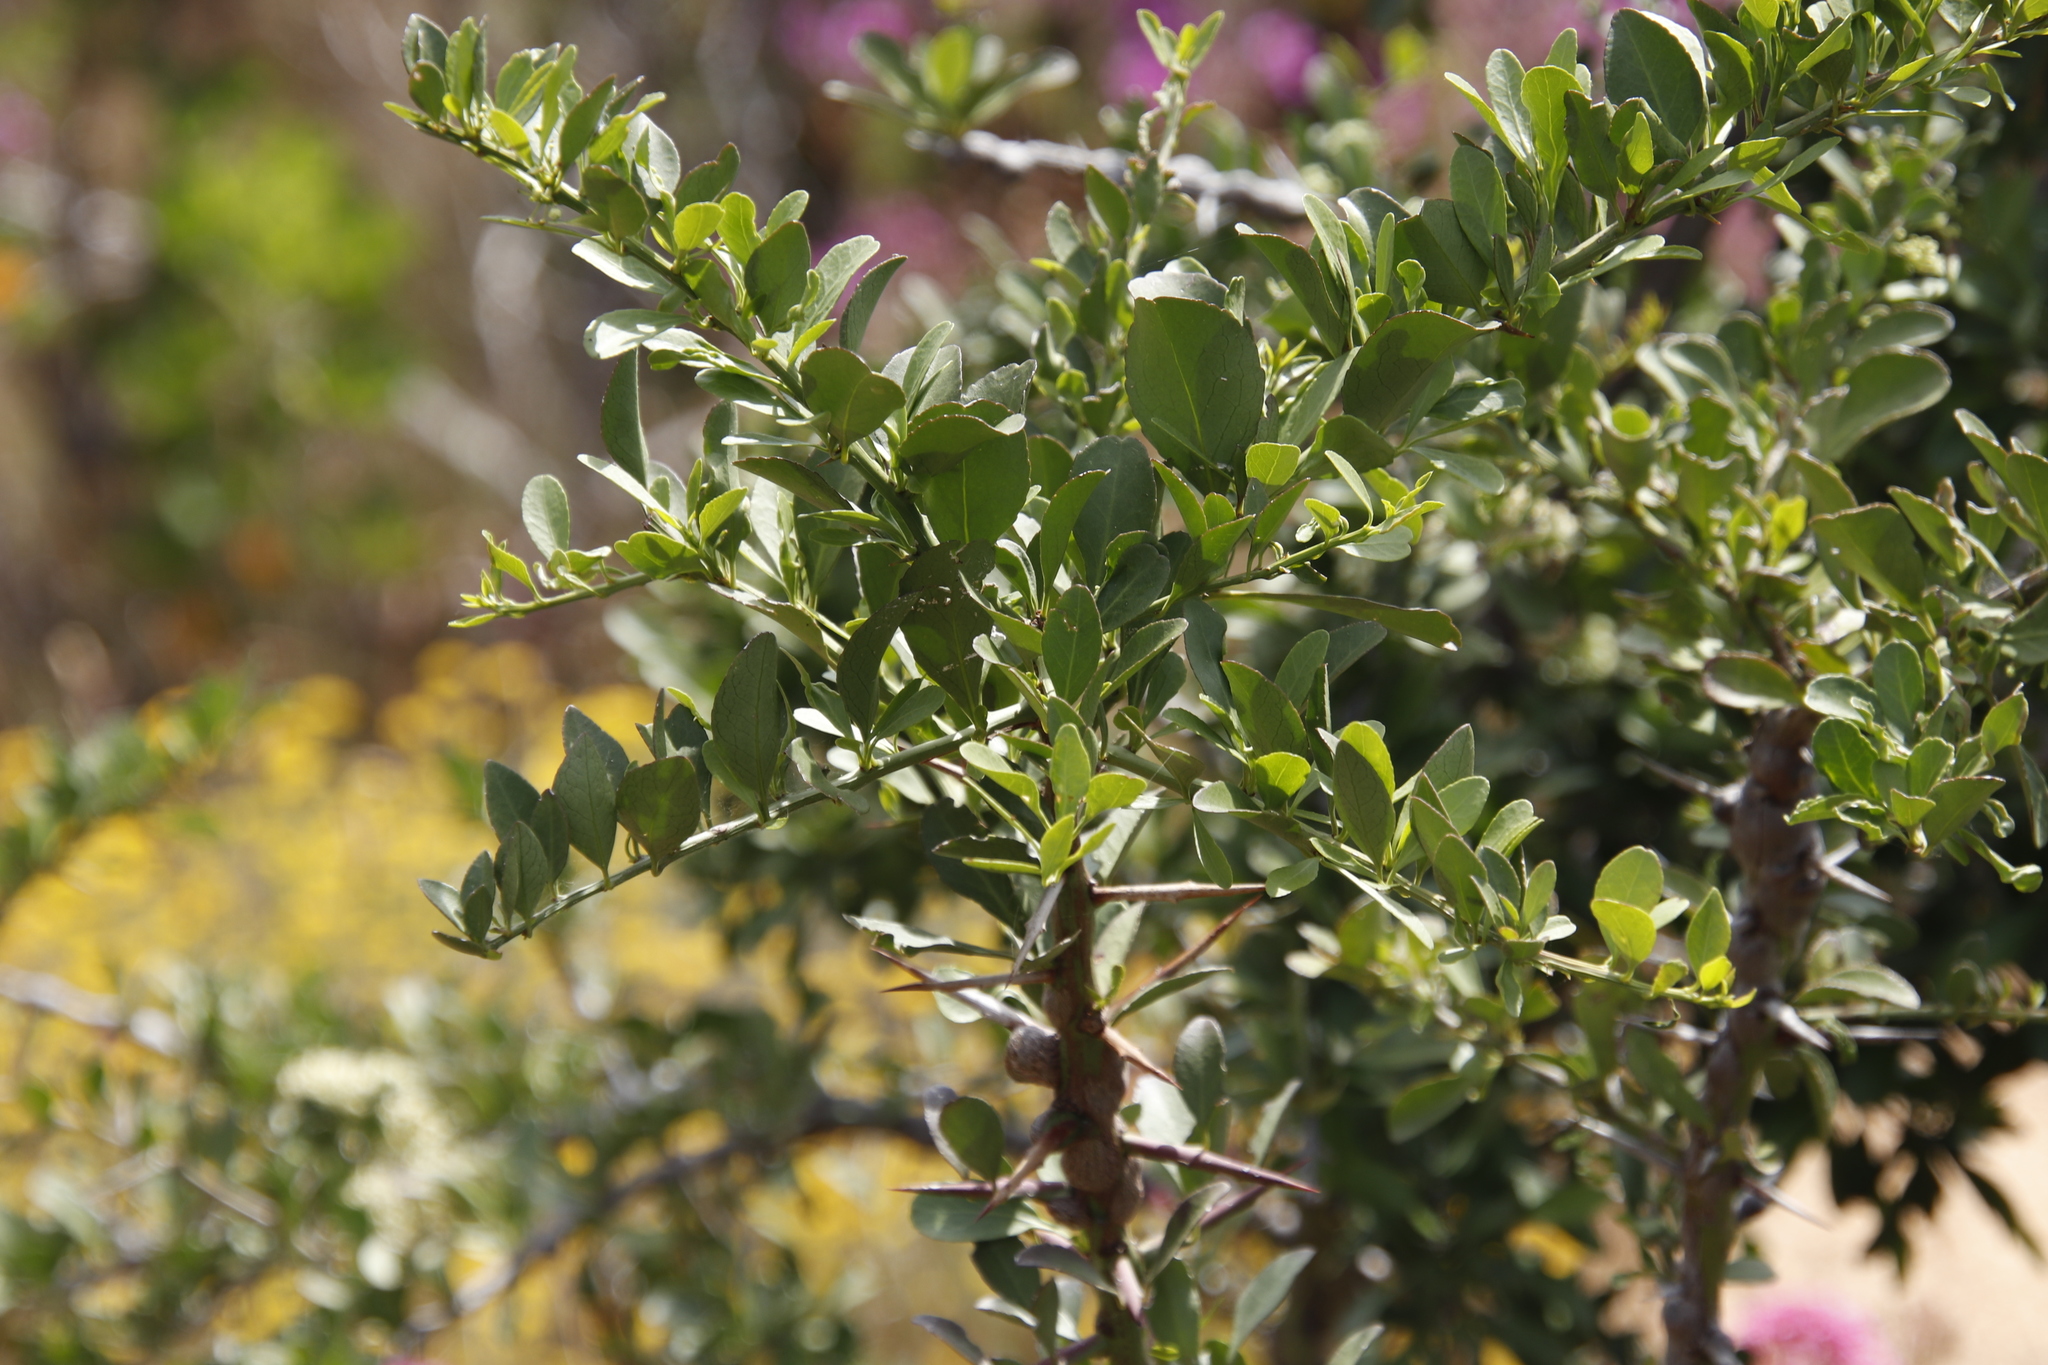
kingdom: Plantae
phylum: Tracheophyta
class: Magnoliopsida
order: Celastrales
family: Celastraceae
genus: Gymnosporia
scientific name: Gymnosporia buxifolia
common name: Common spike-thorn
